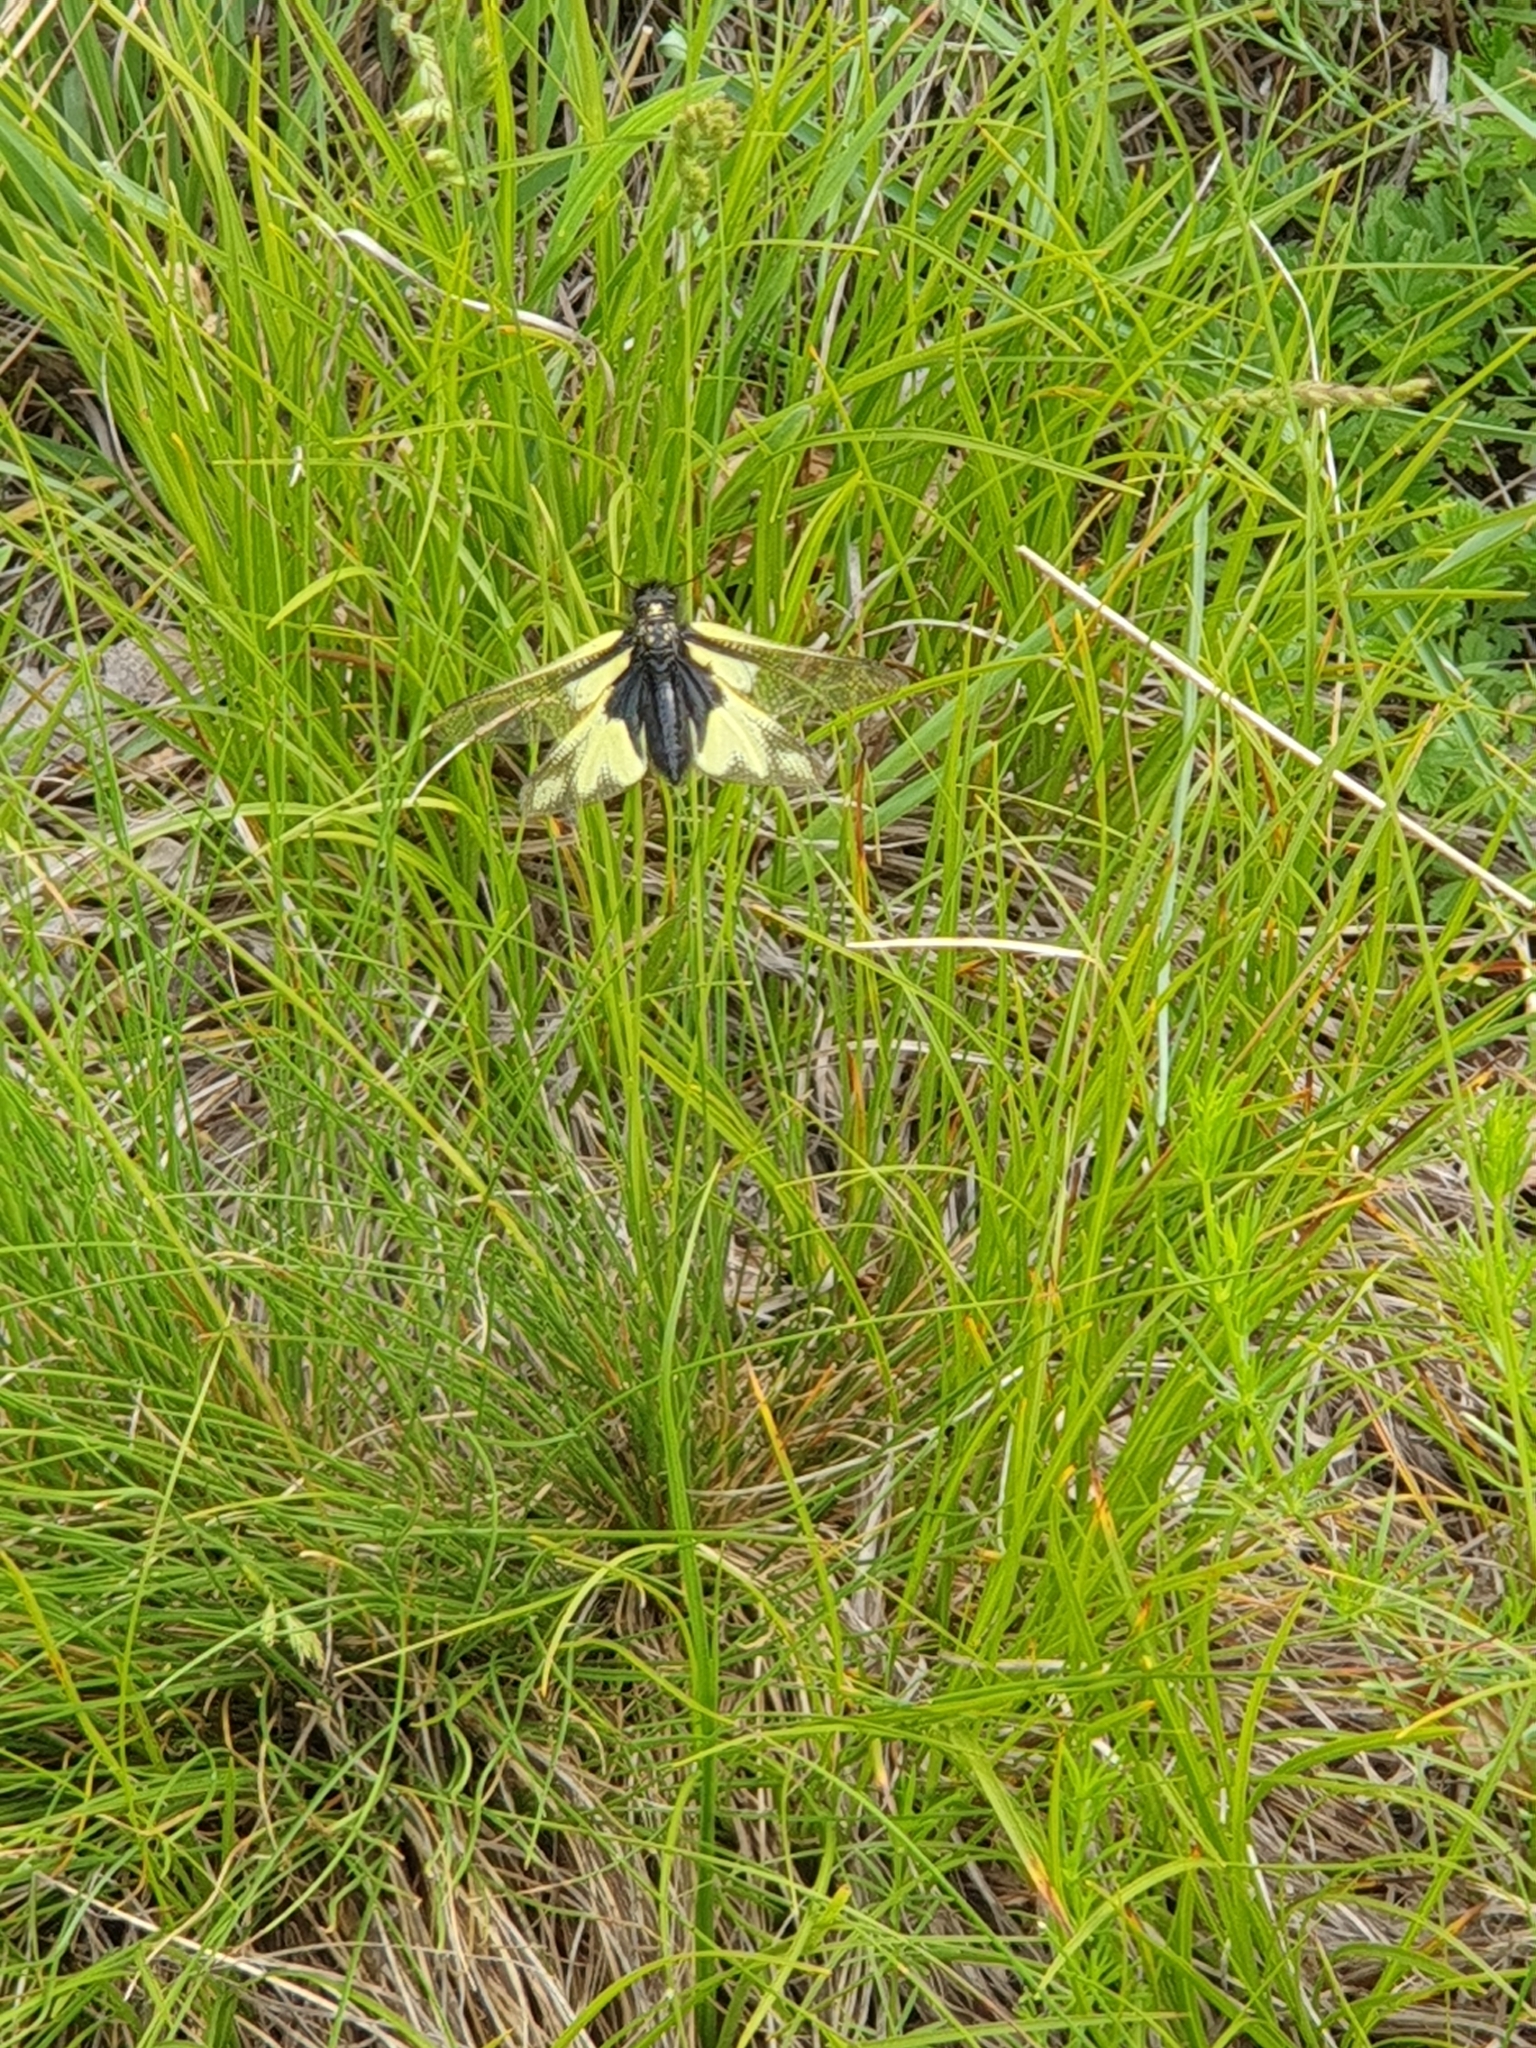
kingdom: Animalia
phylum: Arthropoda
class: Insecta
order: Neuroptera
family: Ascalaphidae
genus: Libelloides
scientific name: Libelloides coccajus
